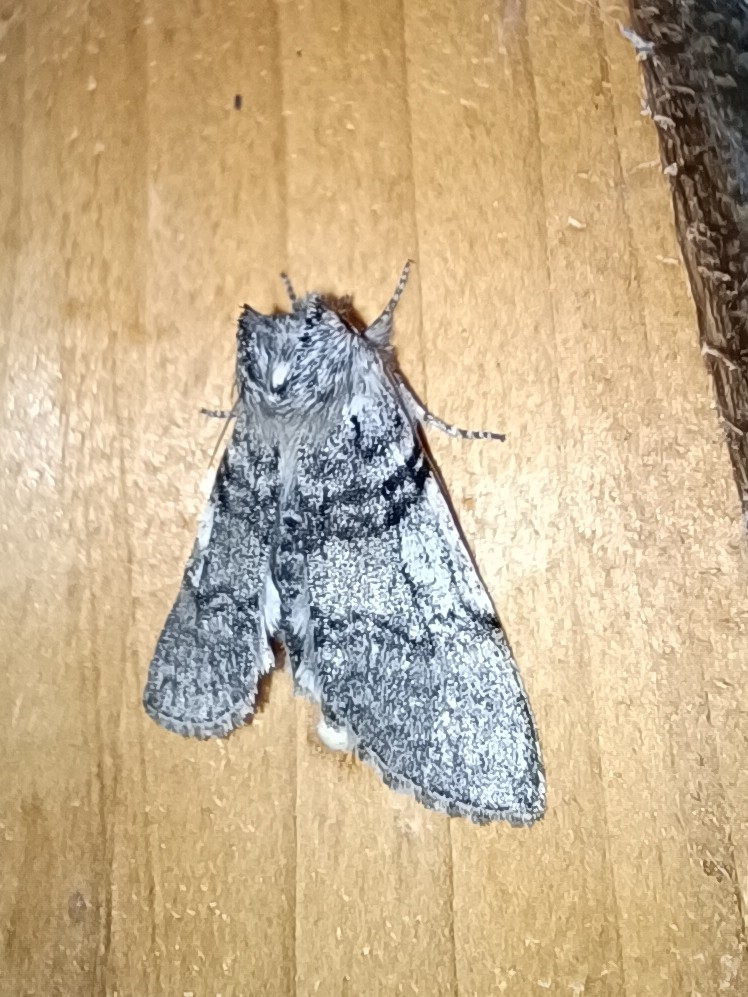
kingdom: Animalia
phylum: Arthropoda
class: Insecta
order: Lepidoptera
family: Drepanidae
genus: Achlya
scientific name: Achlya flavicornis
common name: Yellow horned
